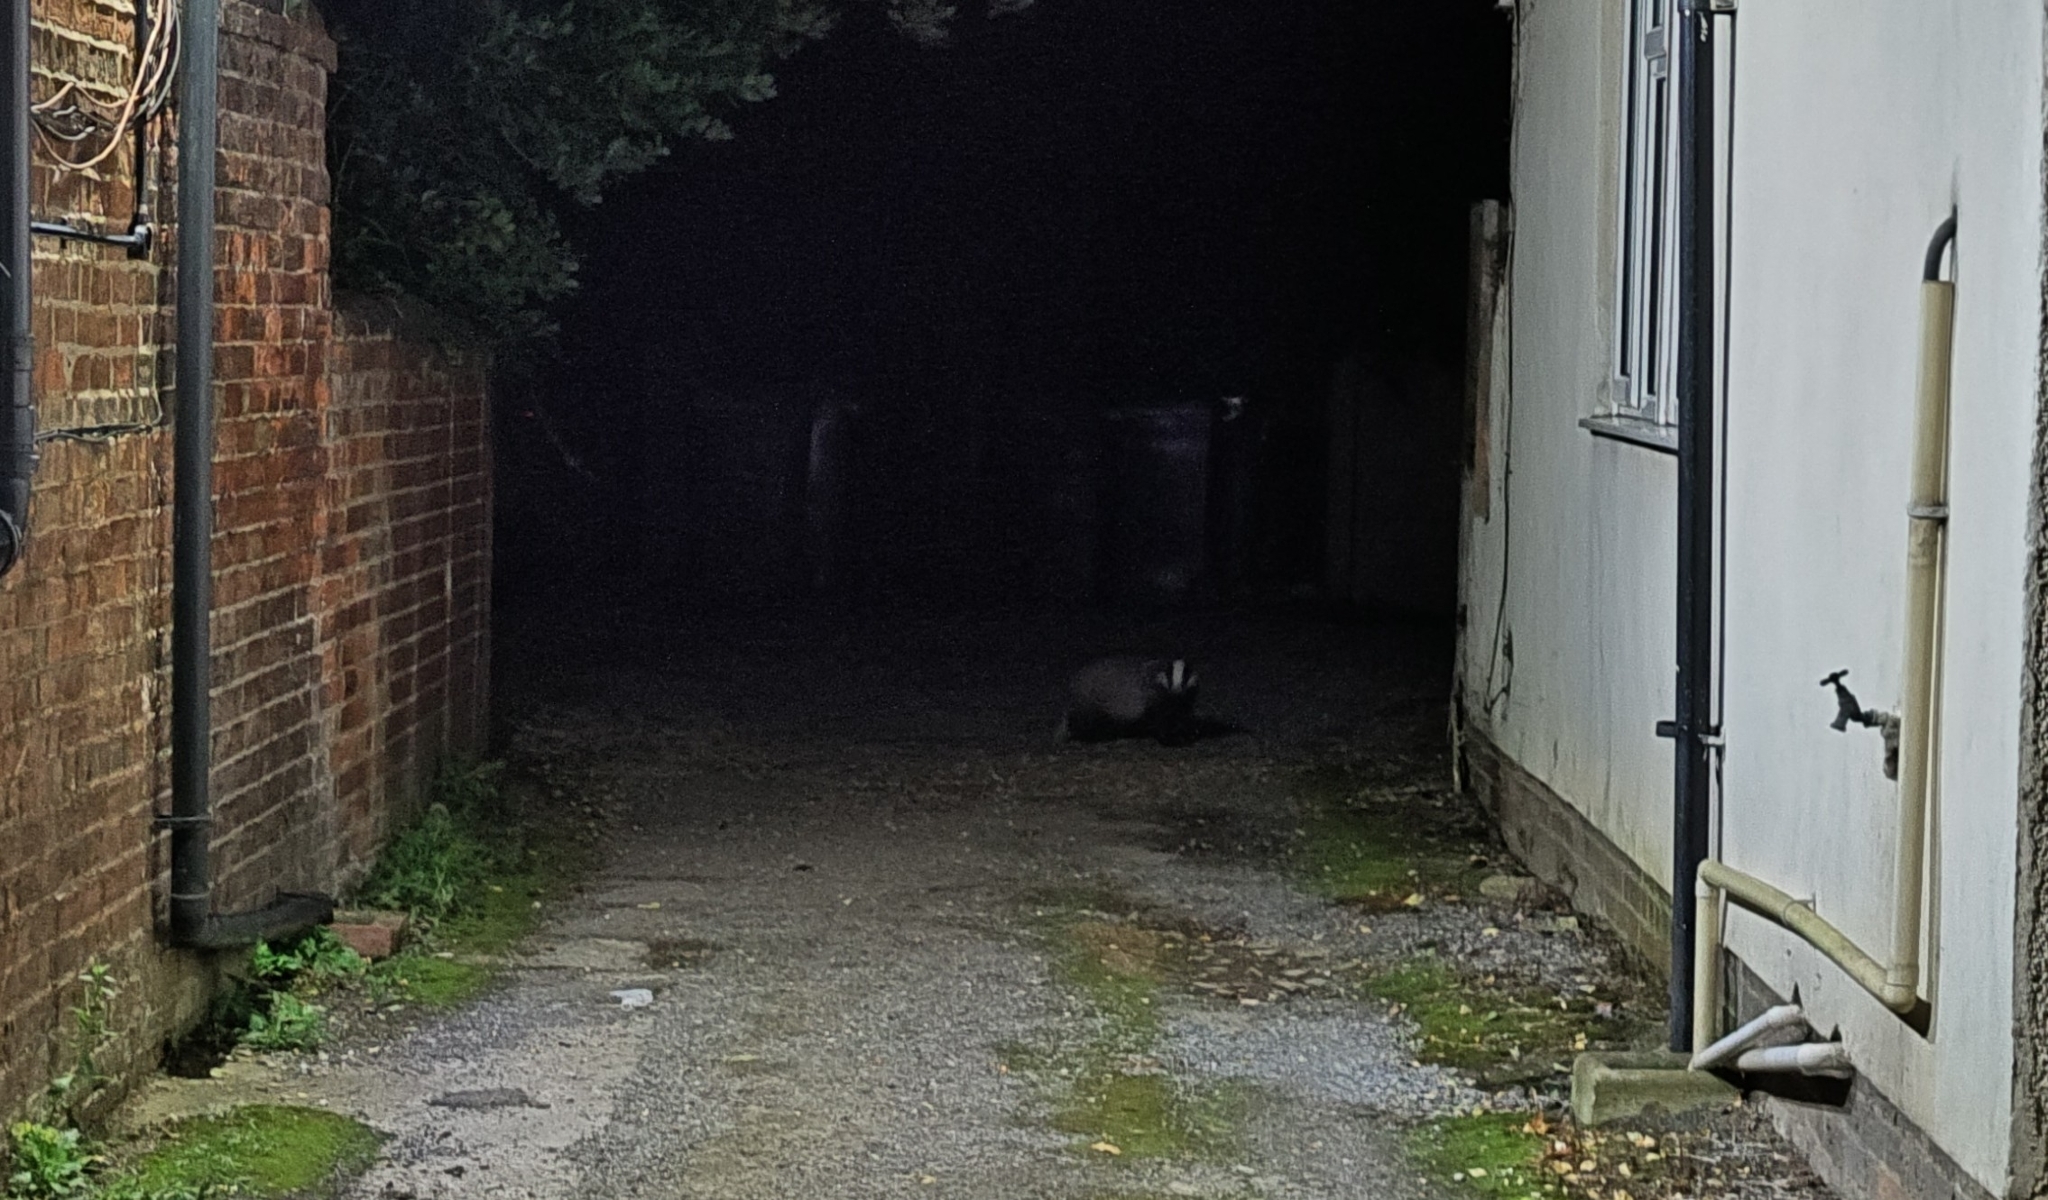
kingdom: Animalia
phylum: Chordata
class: Mammalia
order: Carnivora
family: Mustelidae
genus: Meles
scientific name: Meles meles
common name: Eurasian badger
